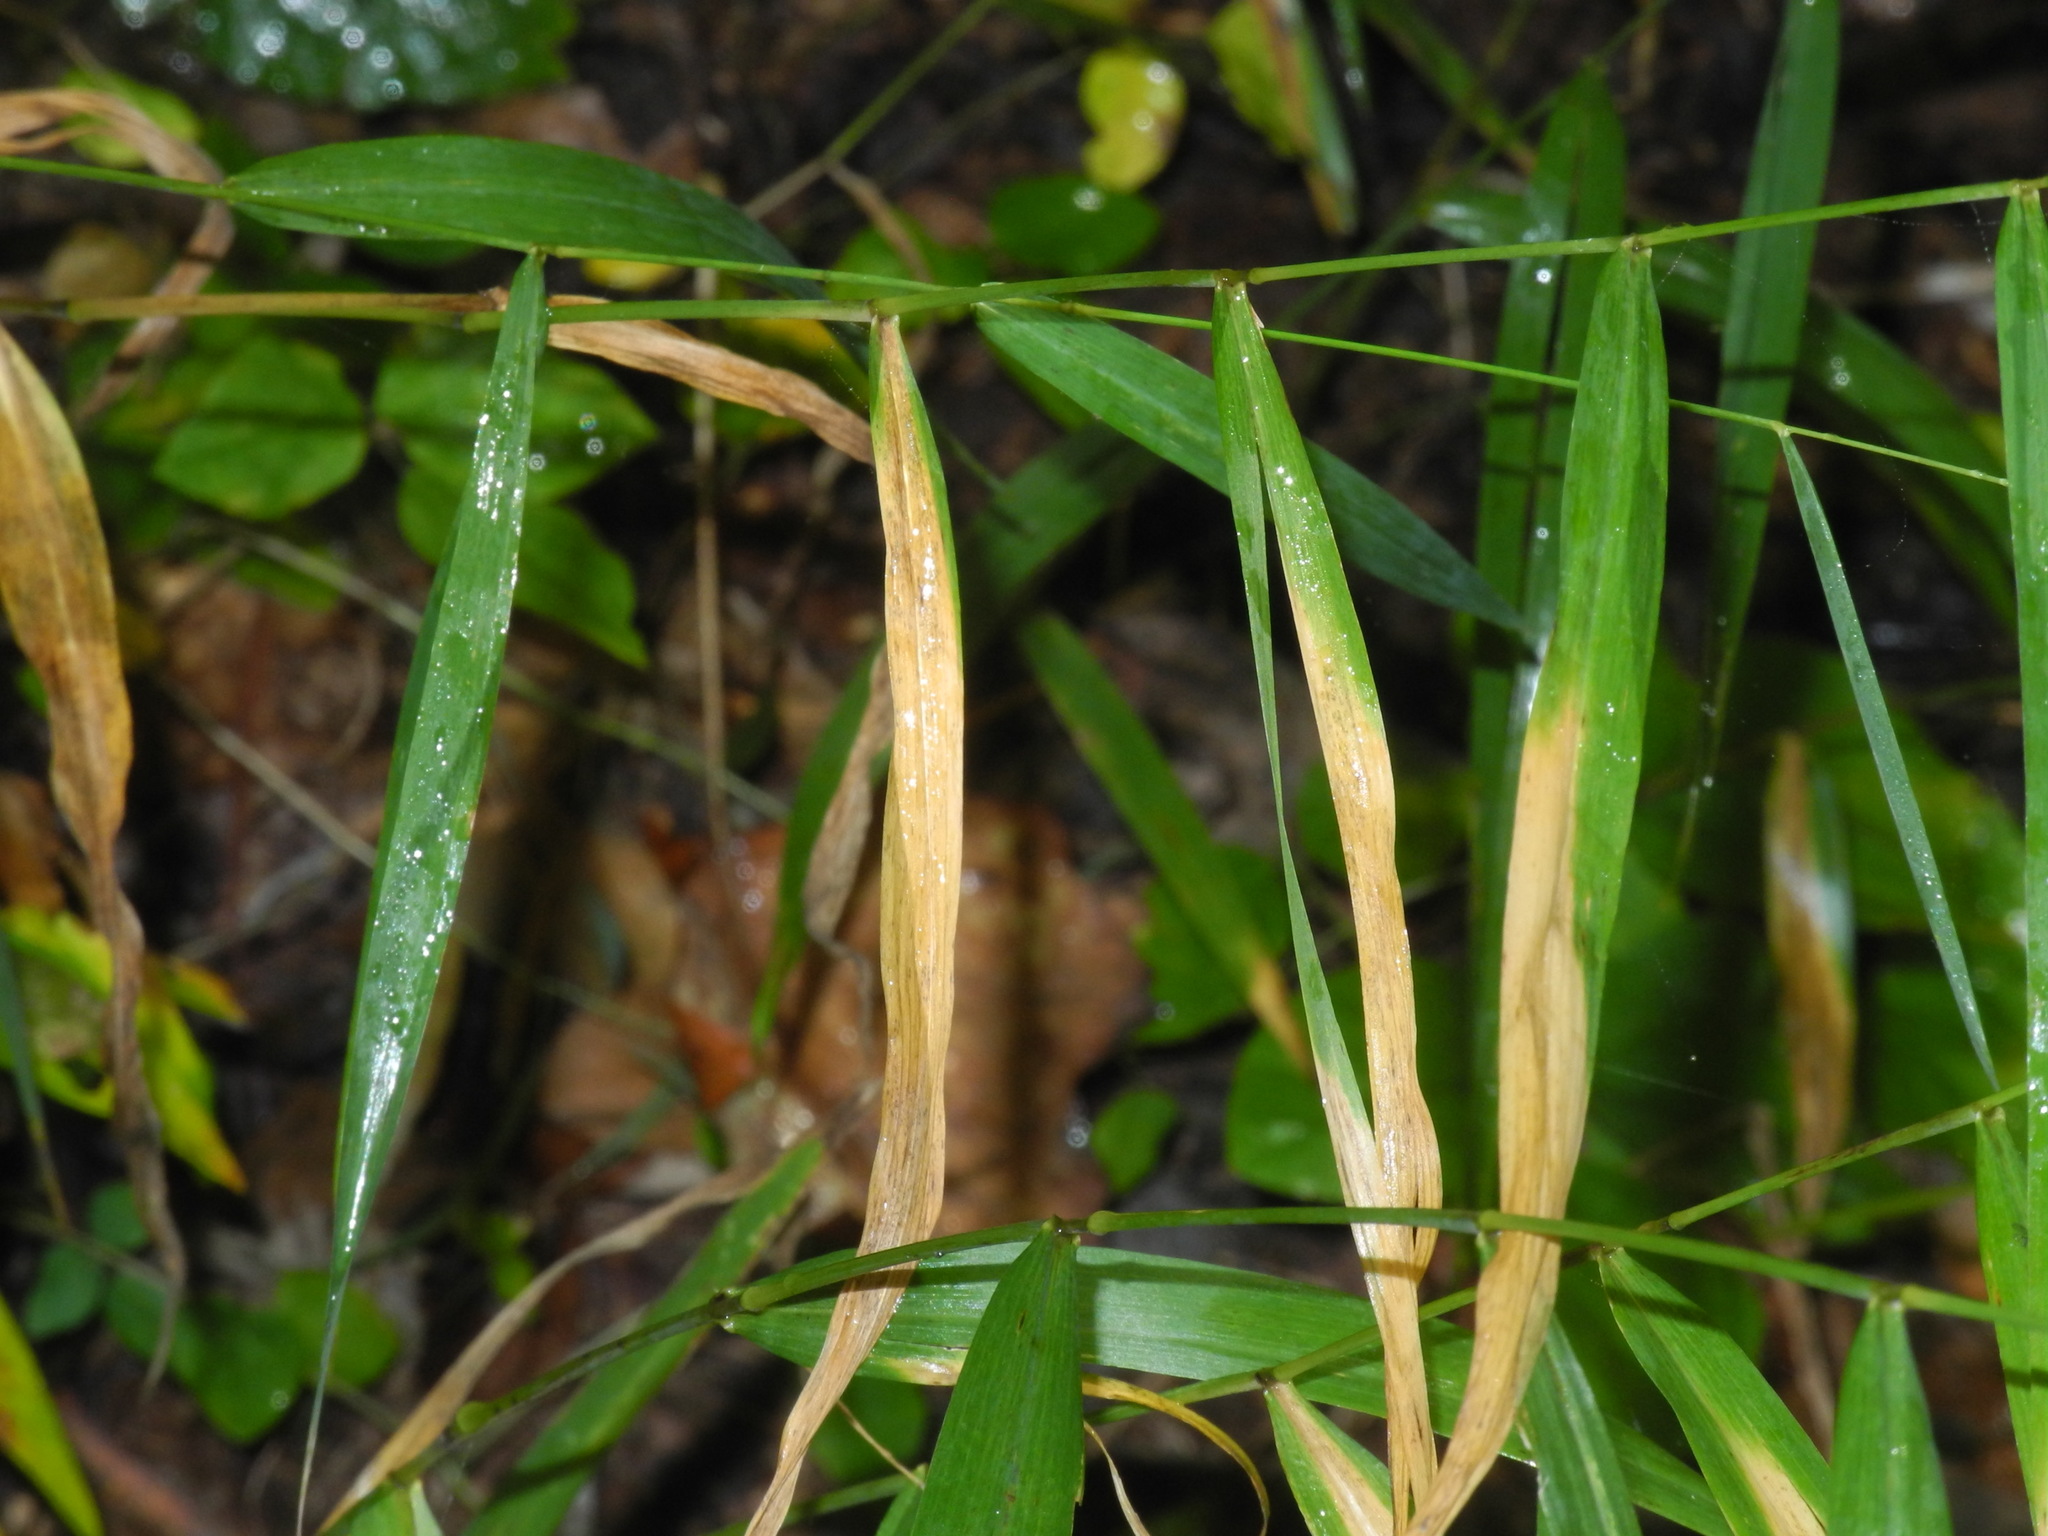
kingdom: Plantae
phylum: Tracheophyta
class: Liliopsida
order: Poales
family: Poaceae
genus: Muhlenbergia
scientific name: Muhlenbergia tenuiflora
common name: Slender muhly
